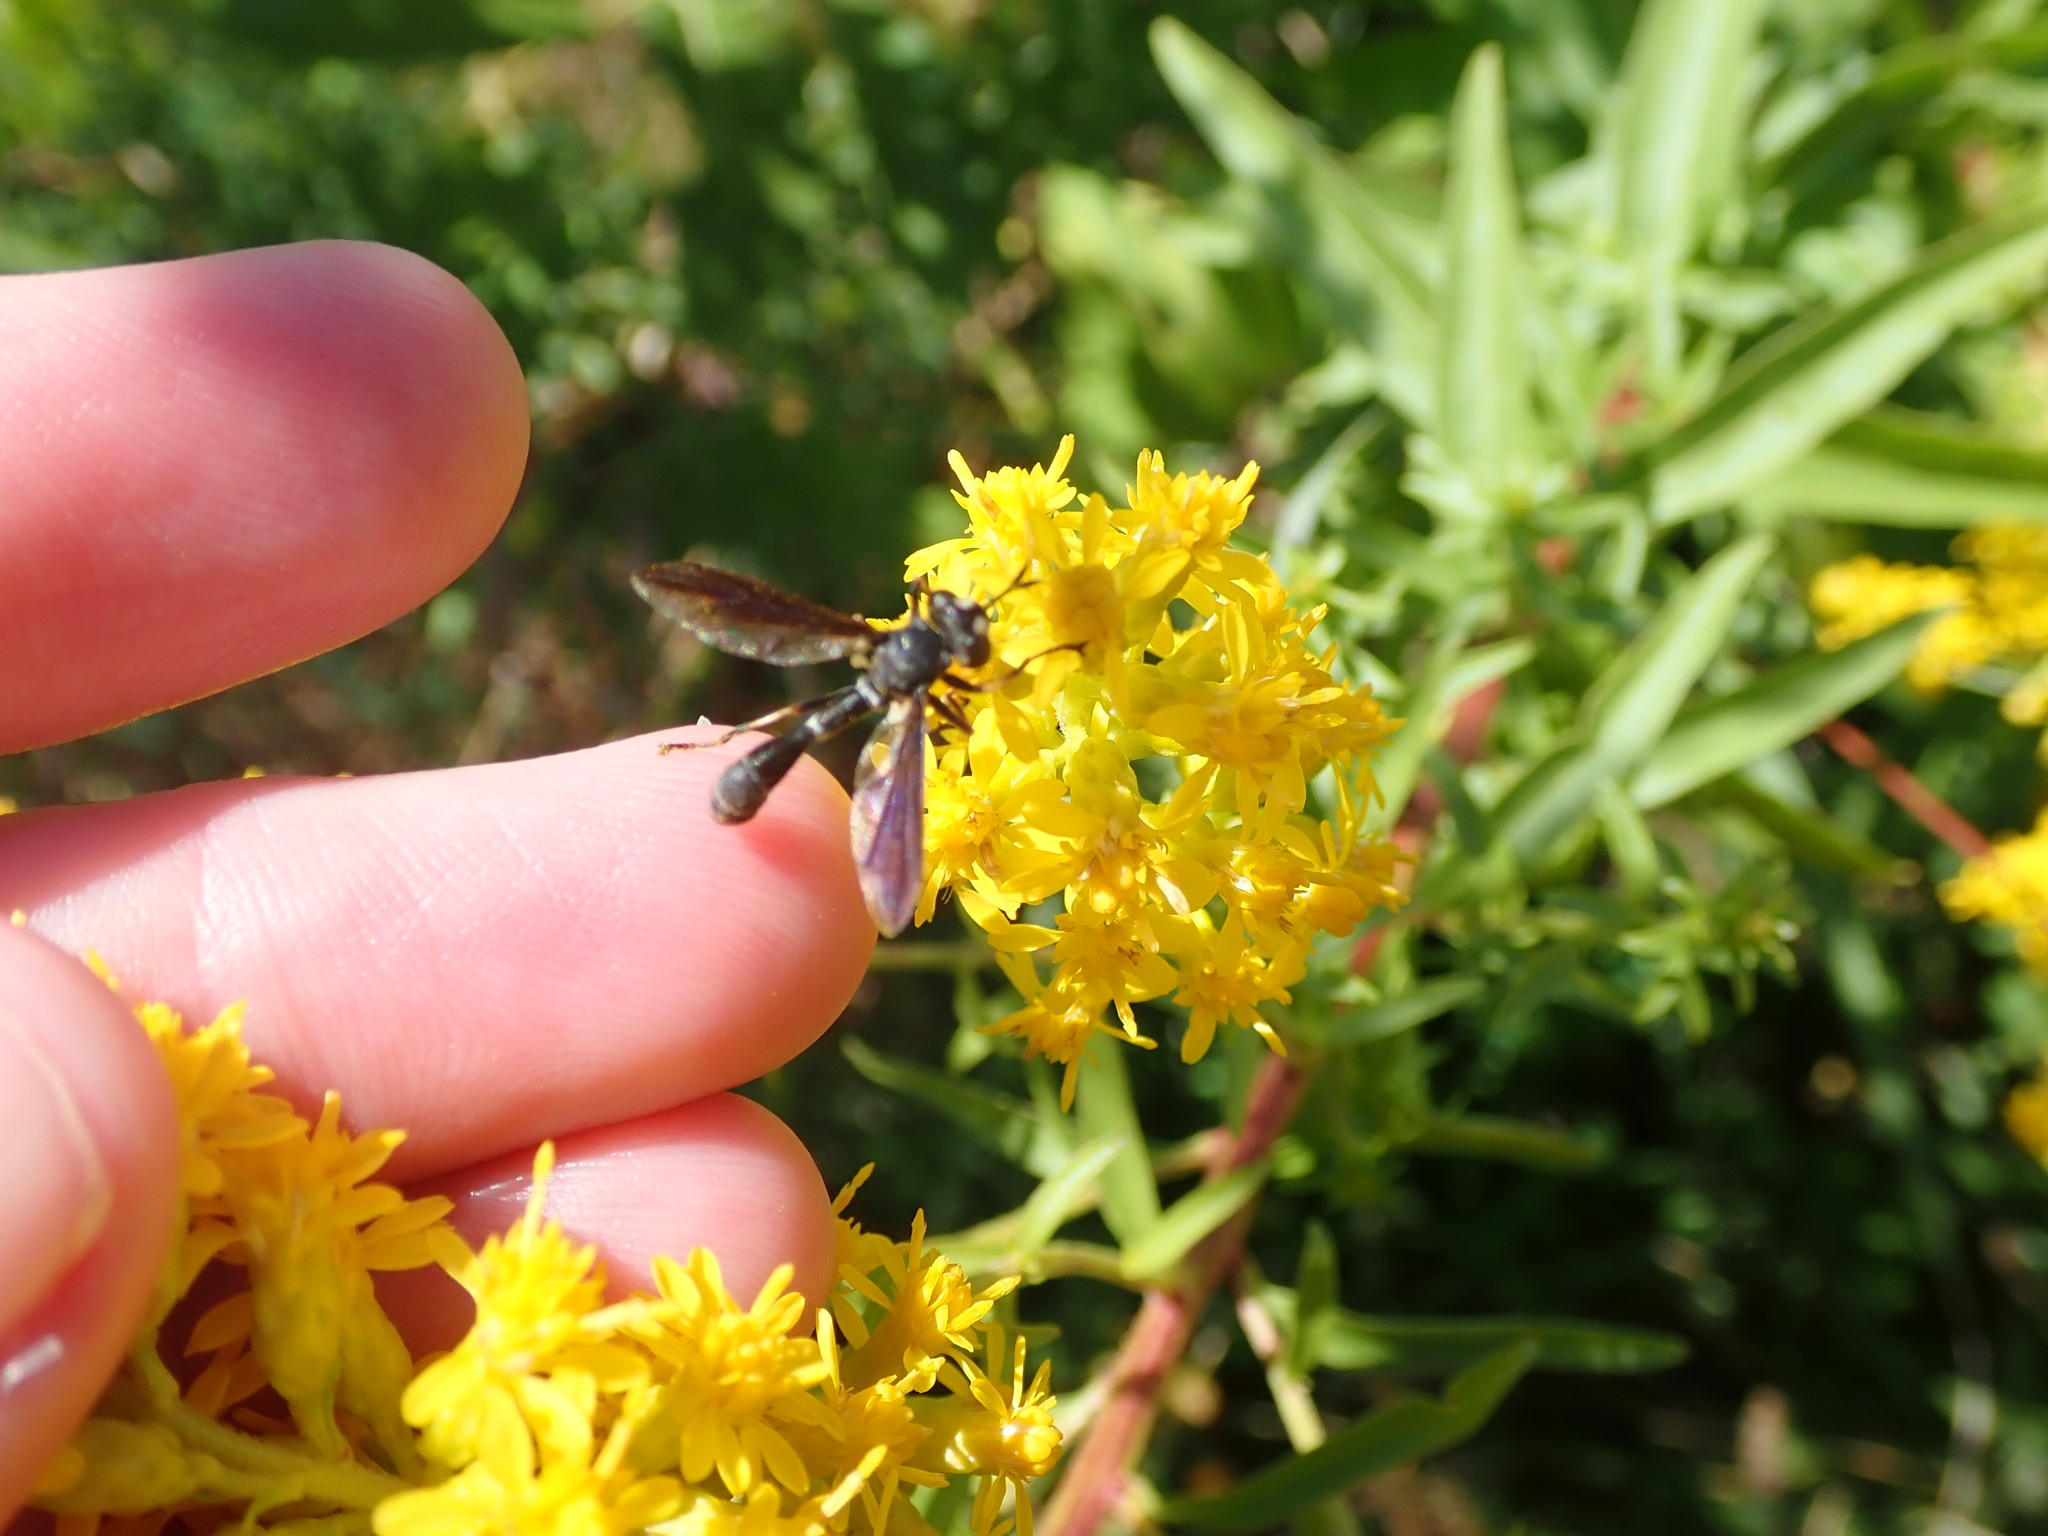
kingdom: Animalia
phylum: Arthropoda
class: Insecta
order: Diptera
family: Conopidae
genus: Physocephala
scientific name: Physocephala tibialis
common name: Common eastern physocephala
